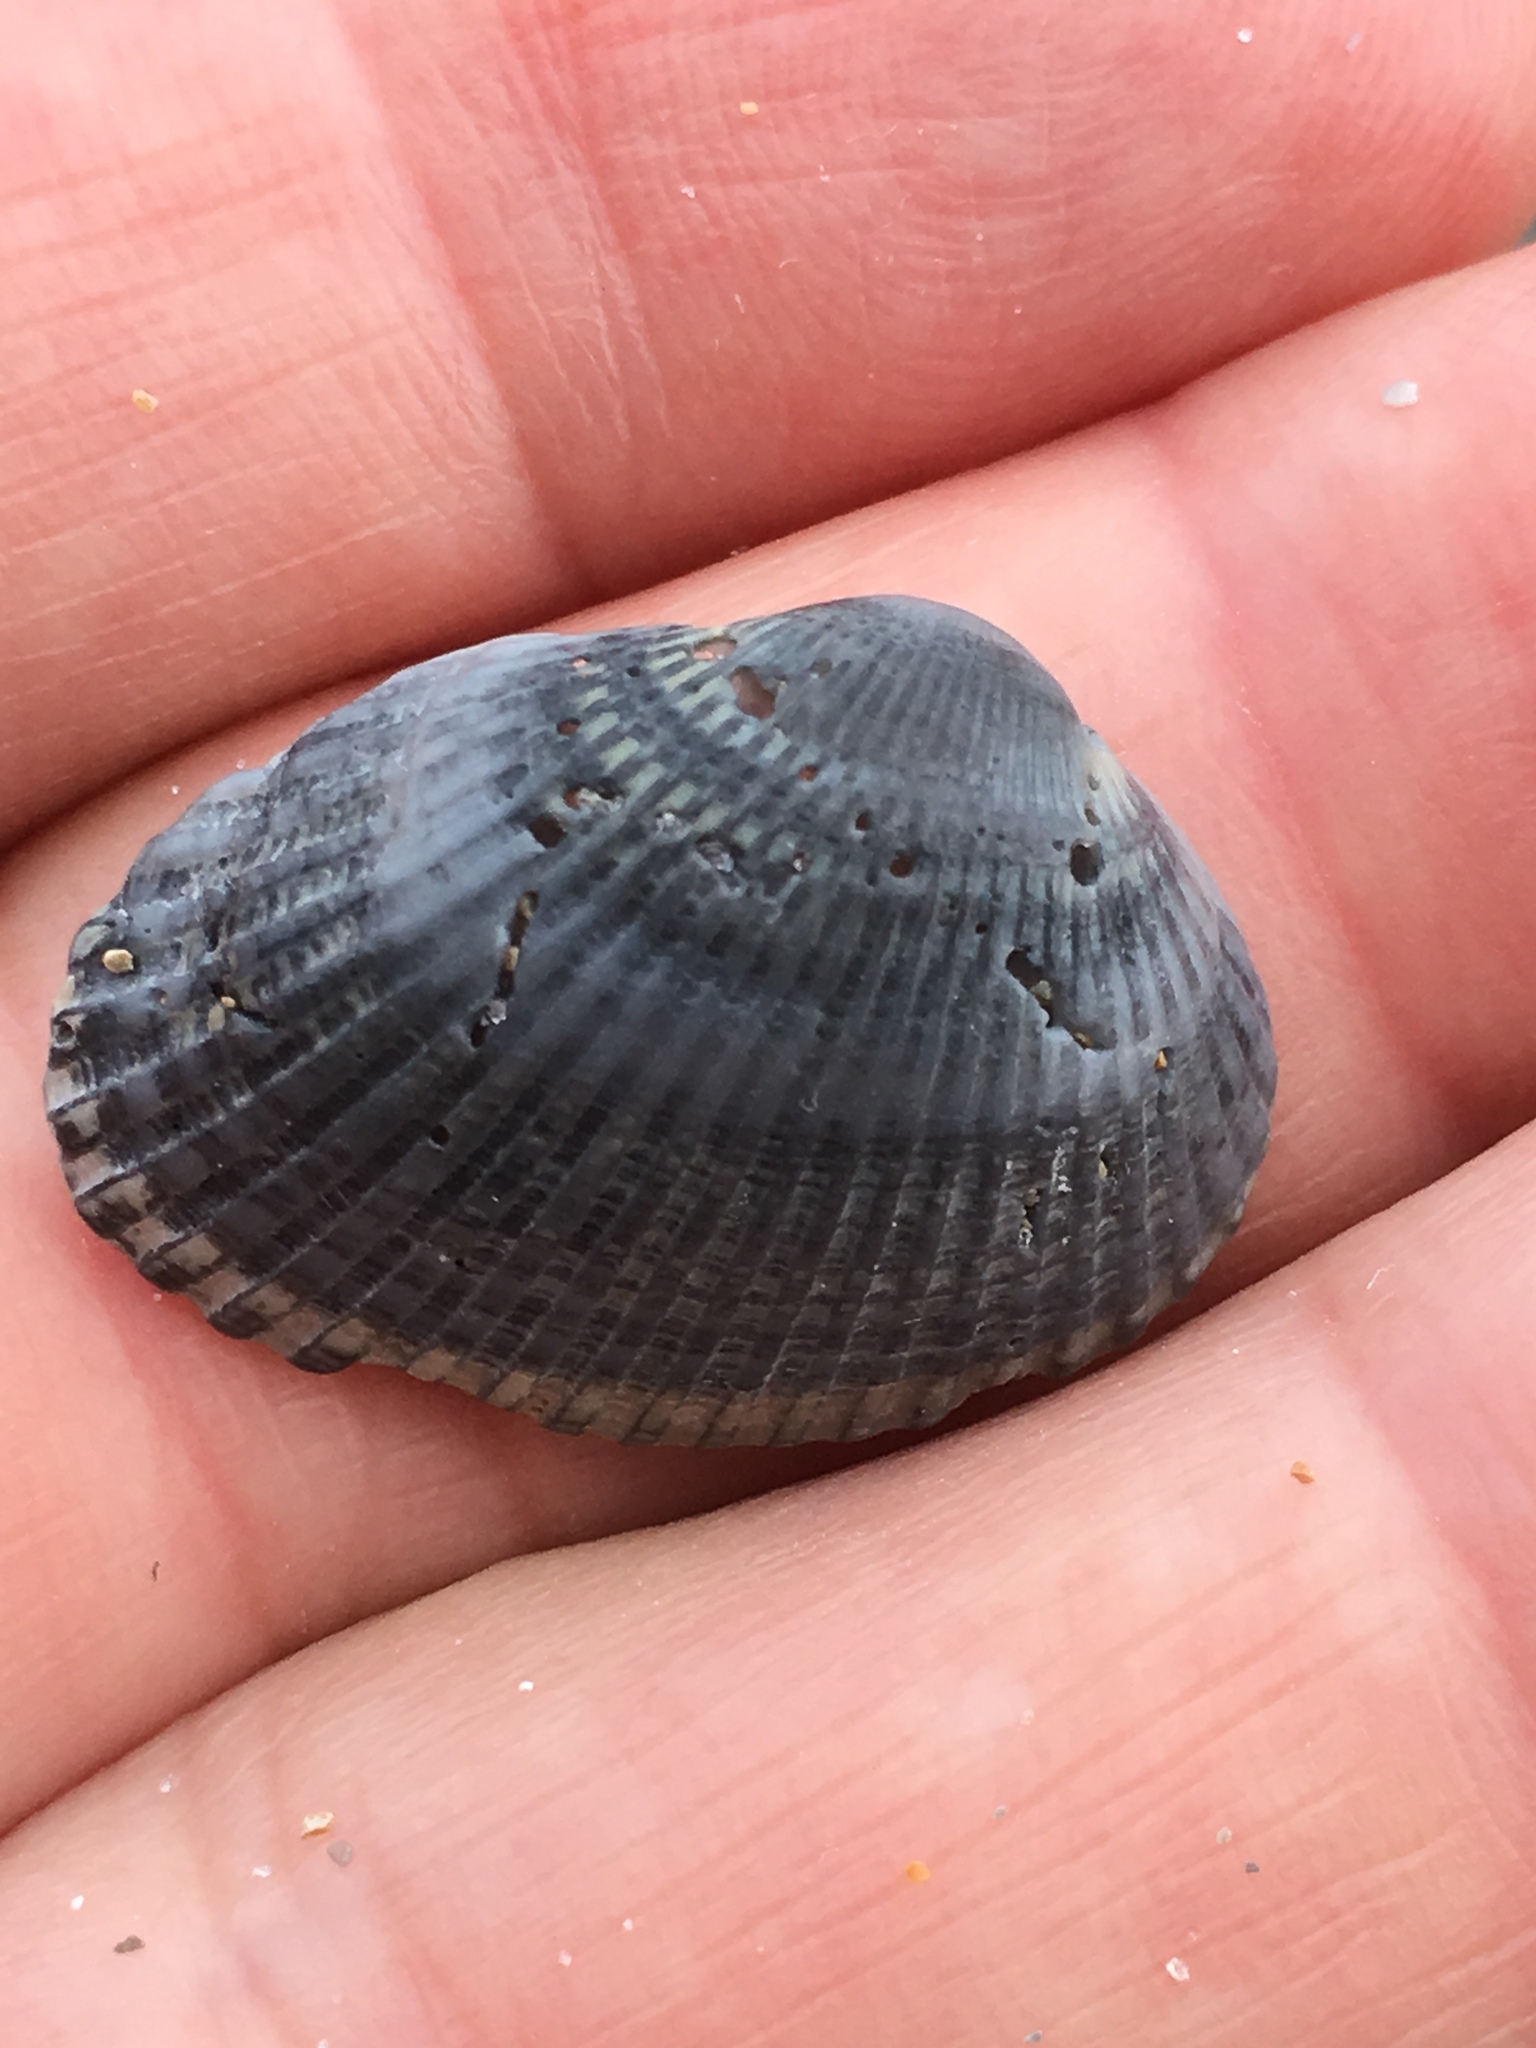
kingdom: Animalia
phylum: Mollusca
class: Bivalvia
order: Arcida
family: Arcidae
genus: Anadara
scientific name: Anadara transversa
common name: Transverse ark
